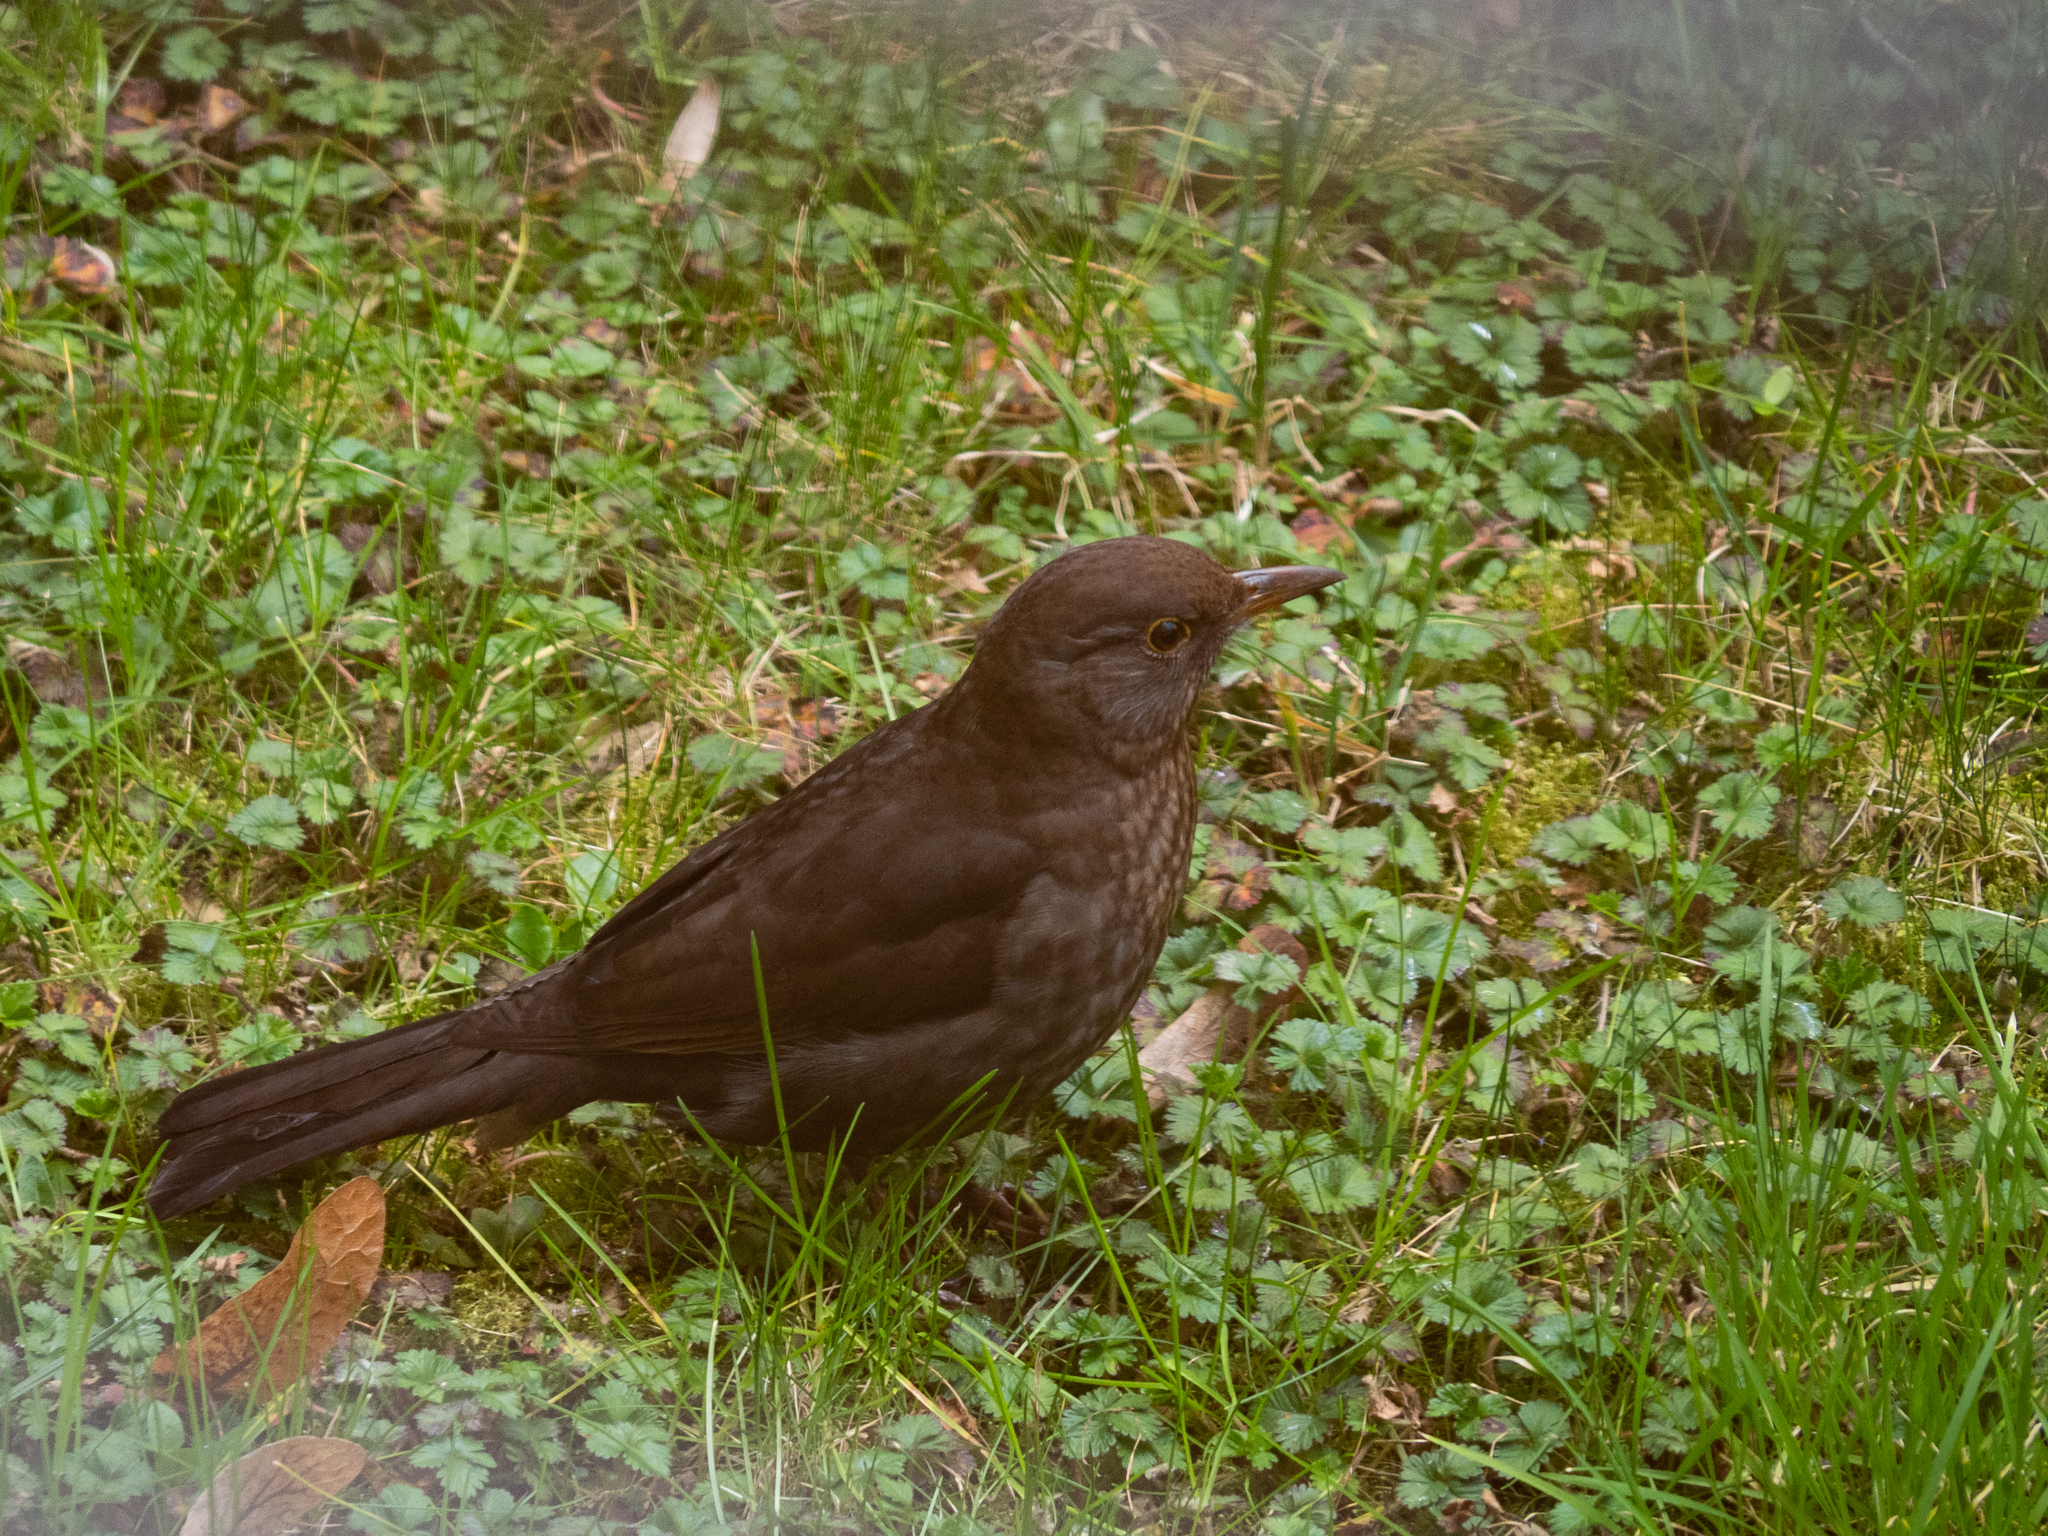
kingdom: Animalia
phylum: Chordata
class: Aves
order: Passeriformes
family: Turdidae
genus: Turdus
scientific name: Turdus merula
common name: Common blackbird
